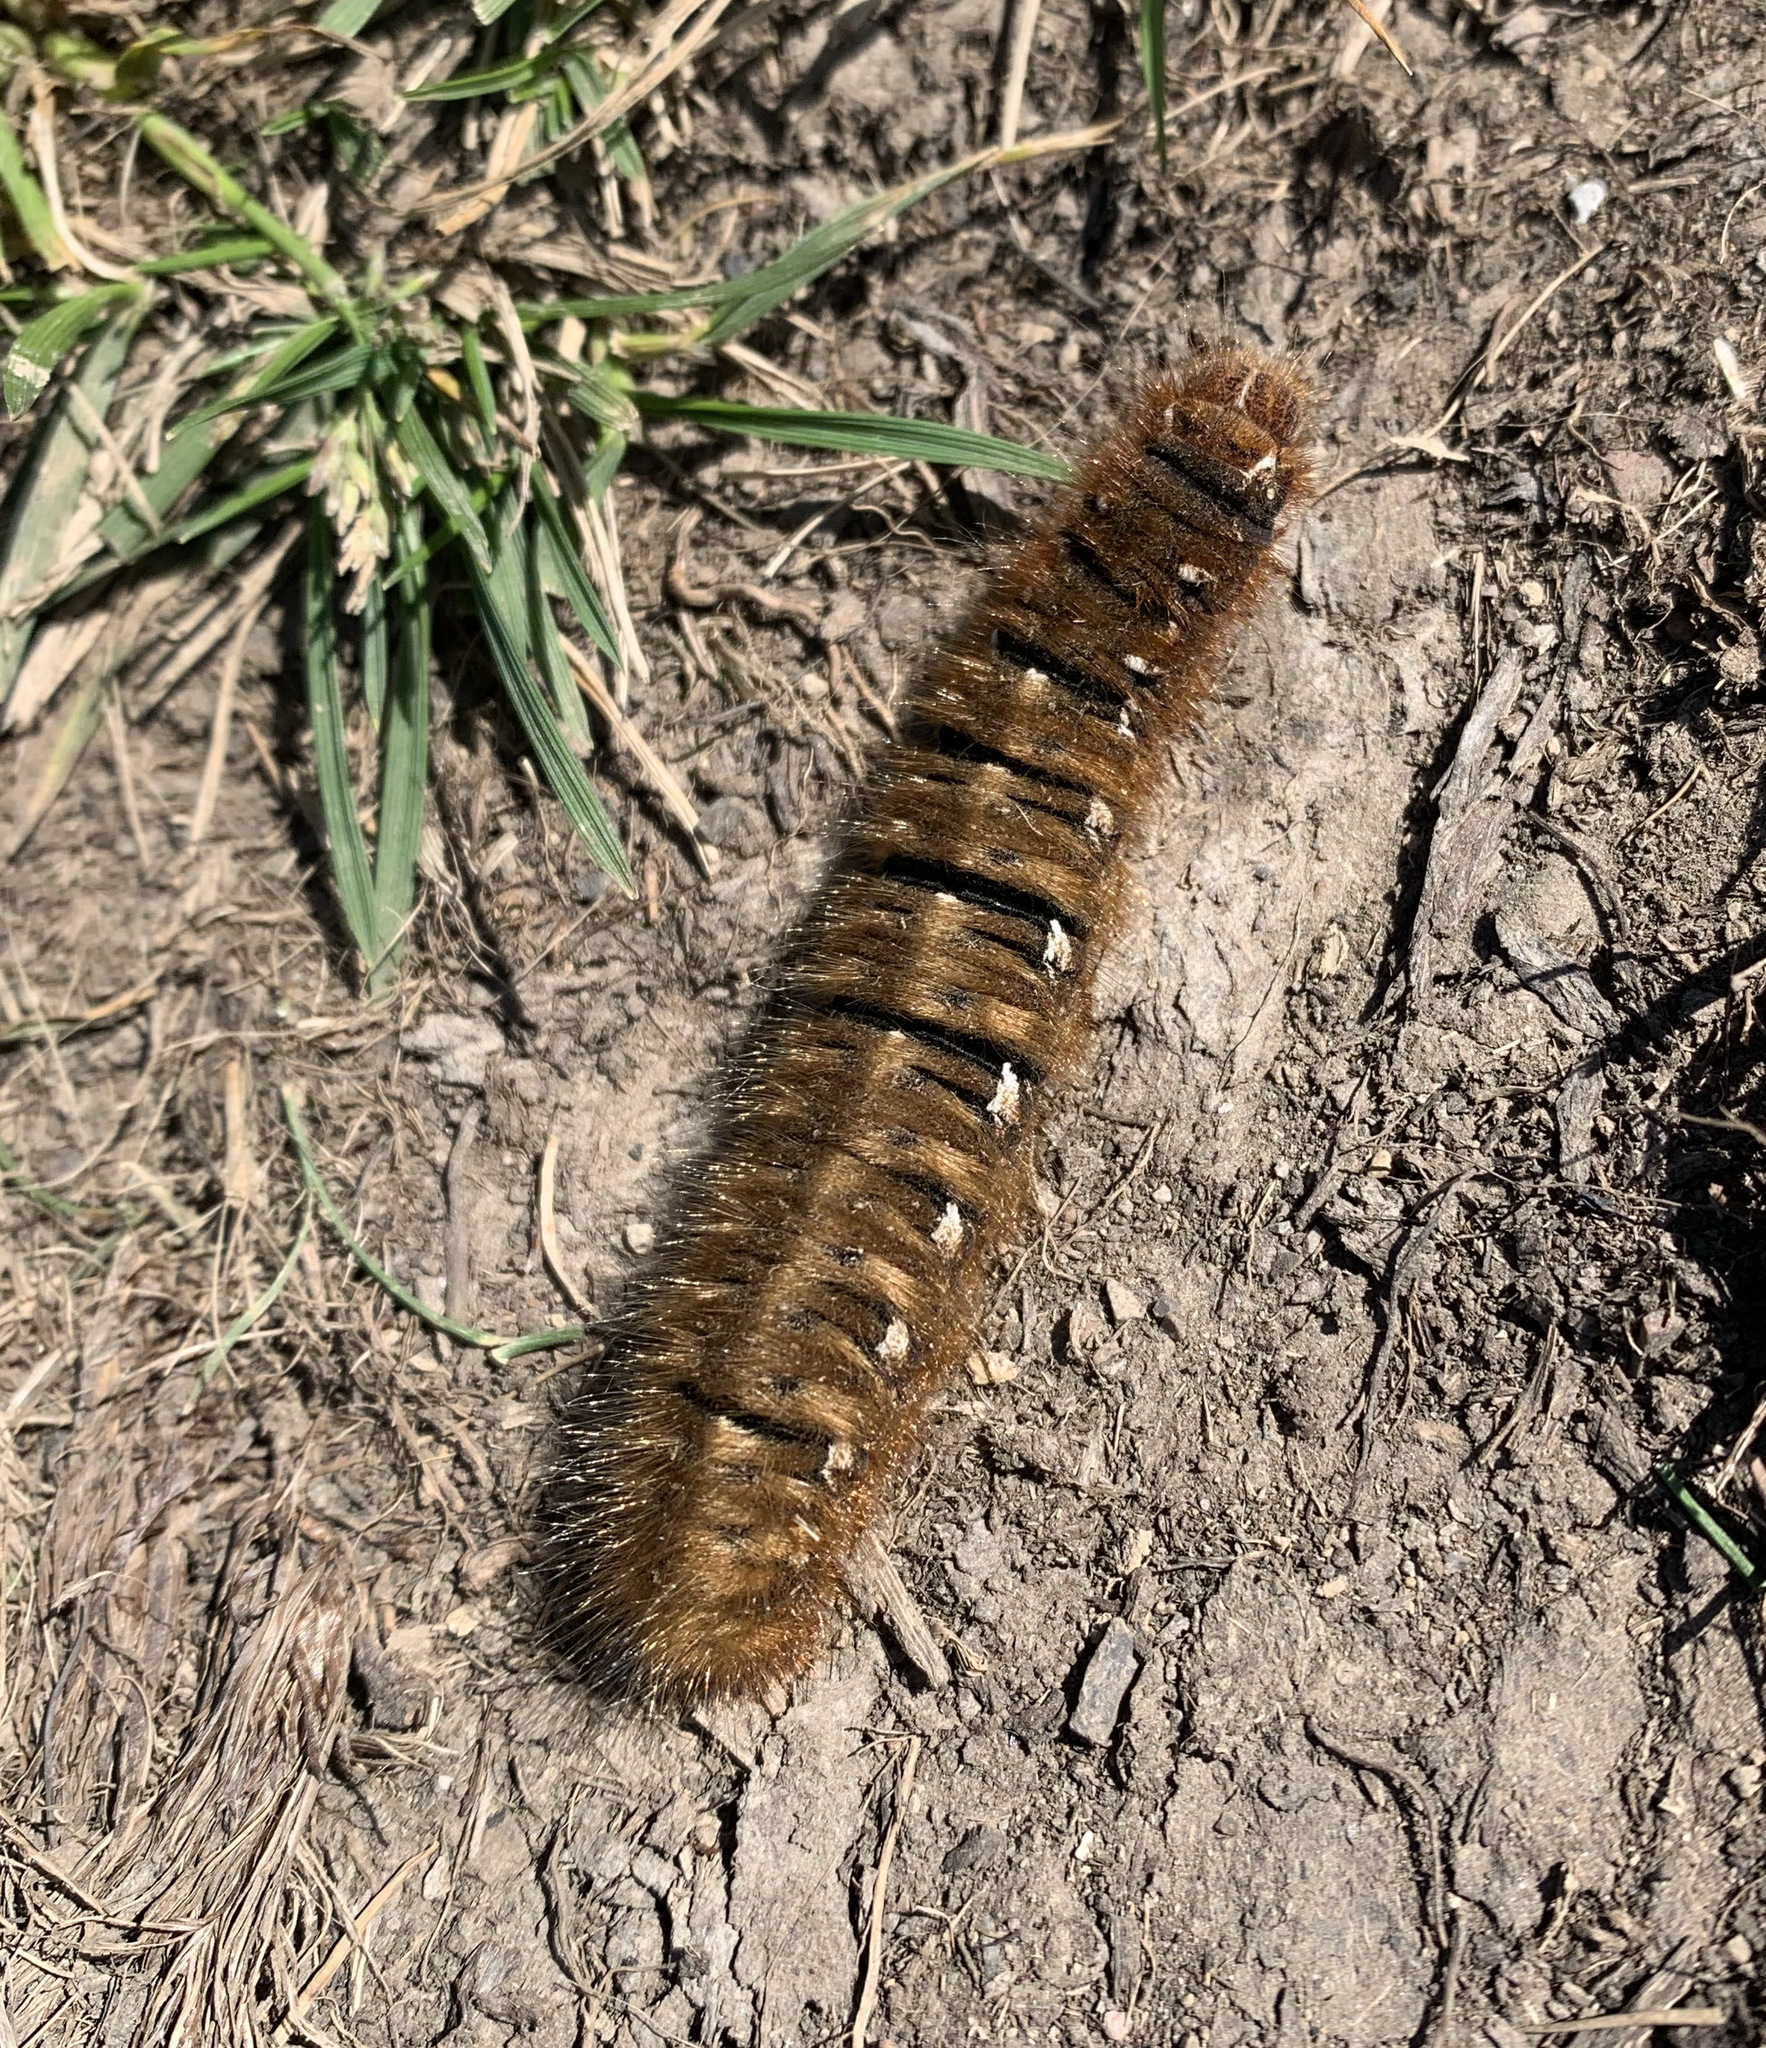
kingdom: Animalia
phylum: Arthropoda
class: Insecta
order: Lepidoptera
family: Lasiocampidae
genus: Lasiocampa
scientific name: Lasiocampa quercus
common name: Oak eggar
